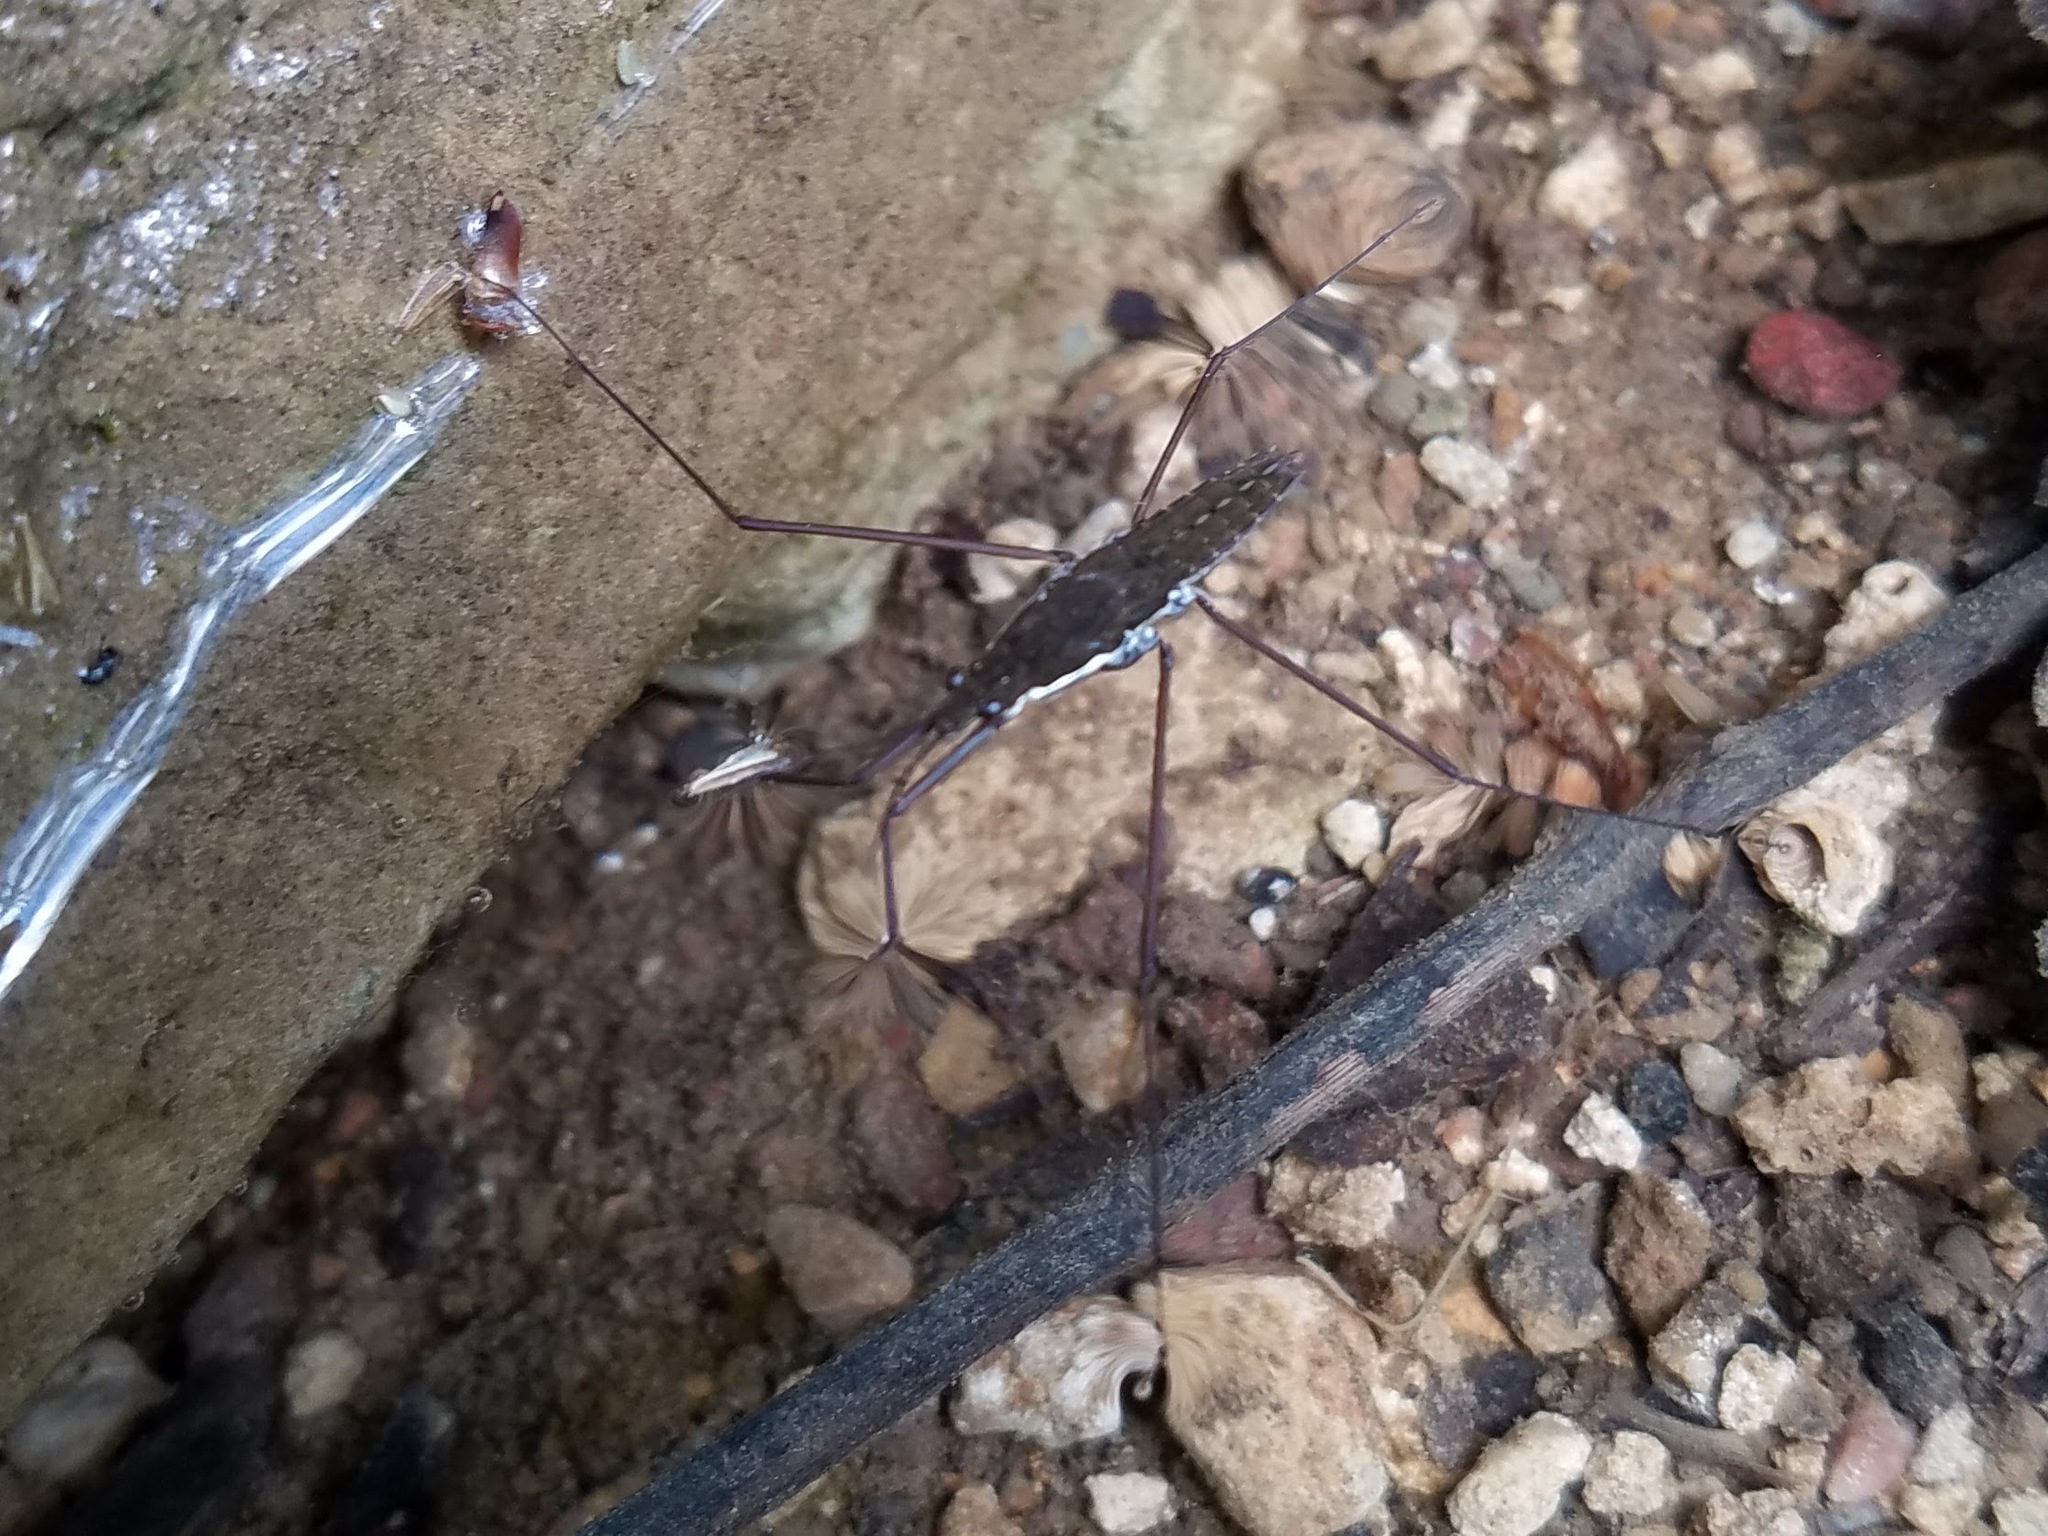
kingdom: Animalia
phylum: Arthropoda
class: Insecta
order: Hemiptera
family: Gerridae
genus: Aquarius
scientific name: Aquarius
